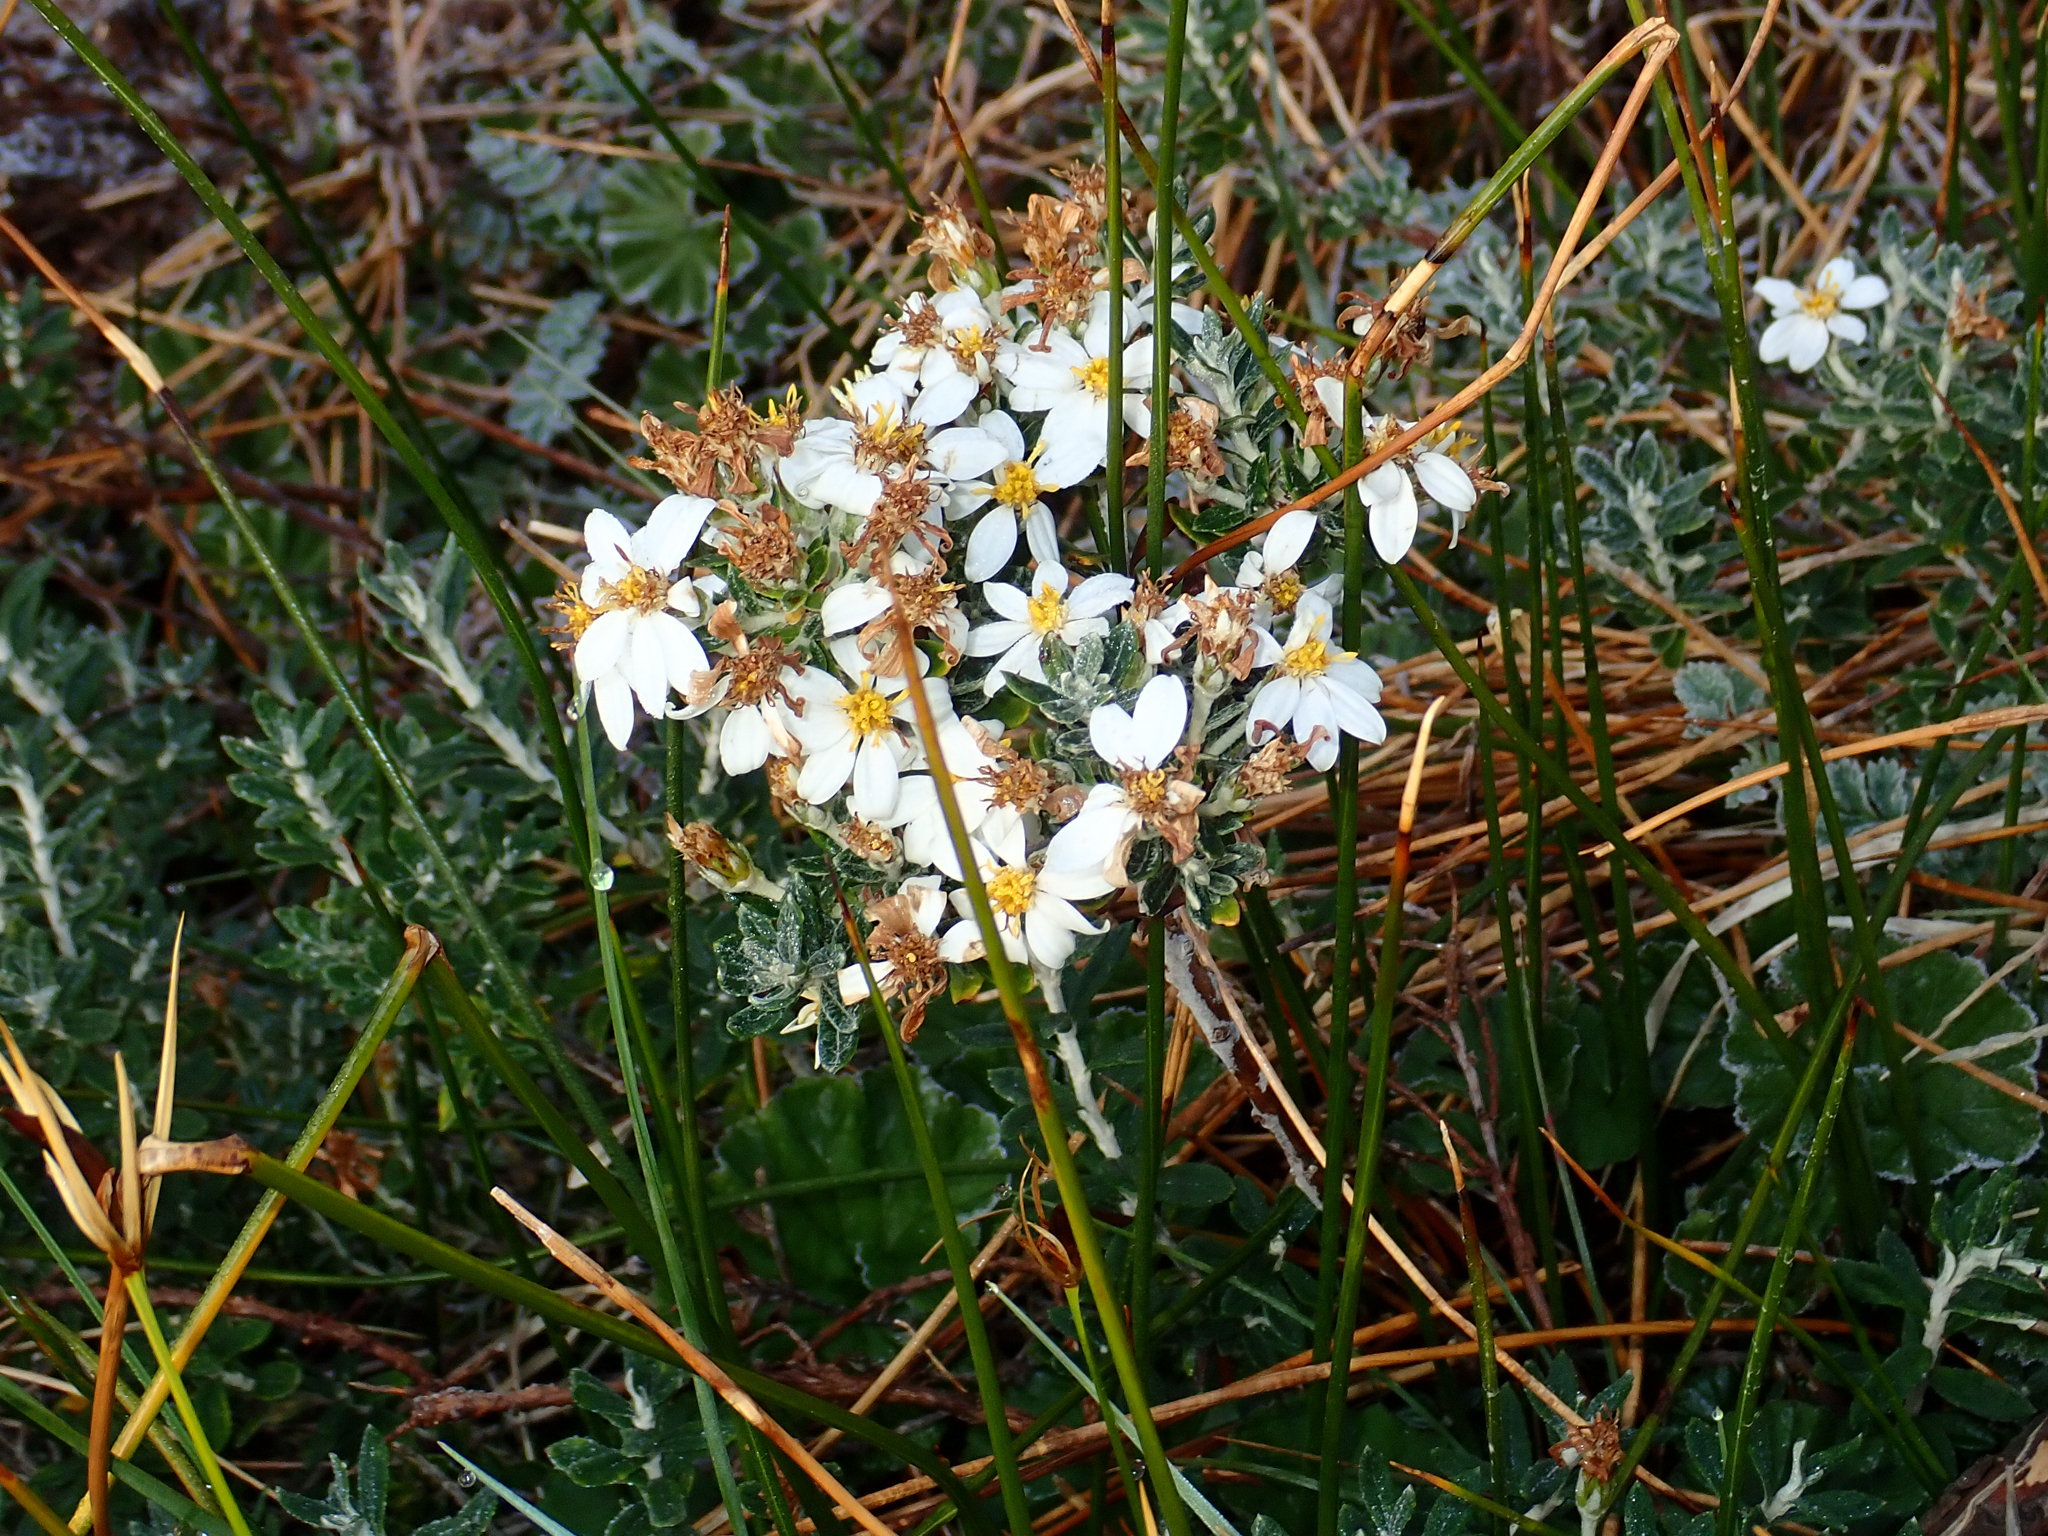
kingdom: Plantae
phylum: Tracheophyta
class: Magnoliopsida
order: Asterales
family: Asteraceae
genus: Chiliotrichum
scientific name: Chiliotrichum diffusum
